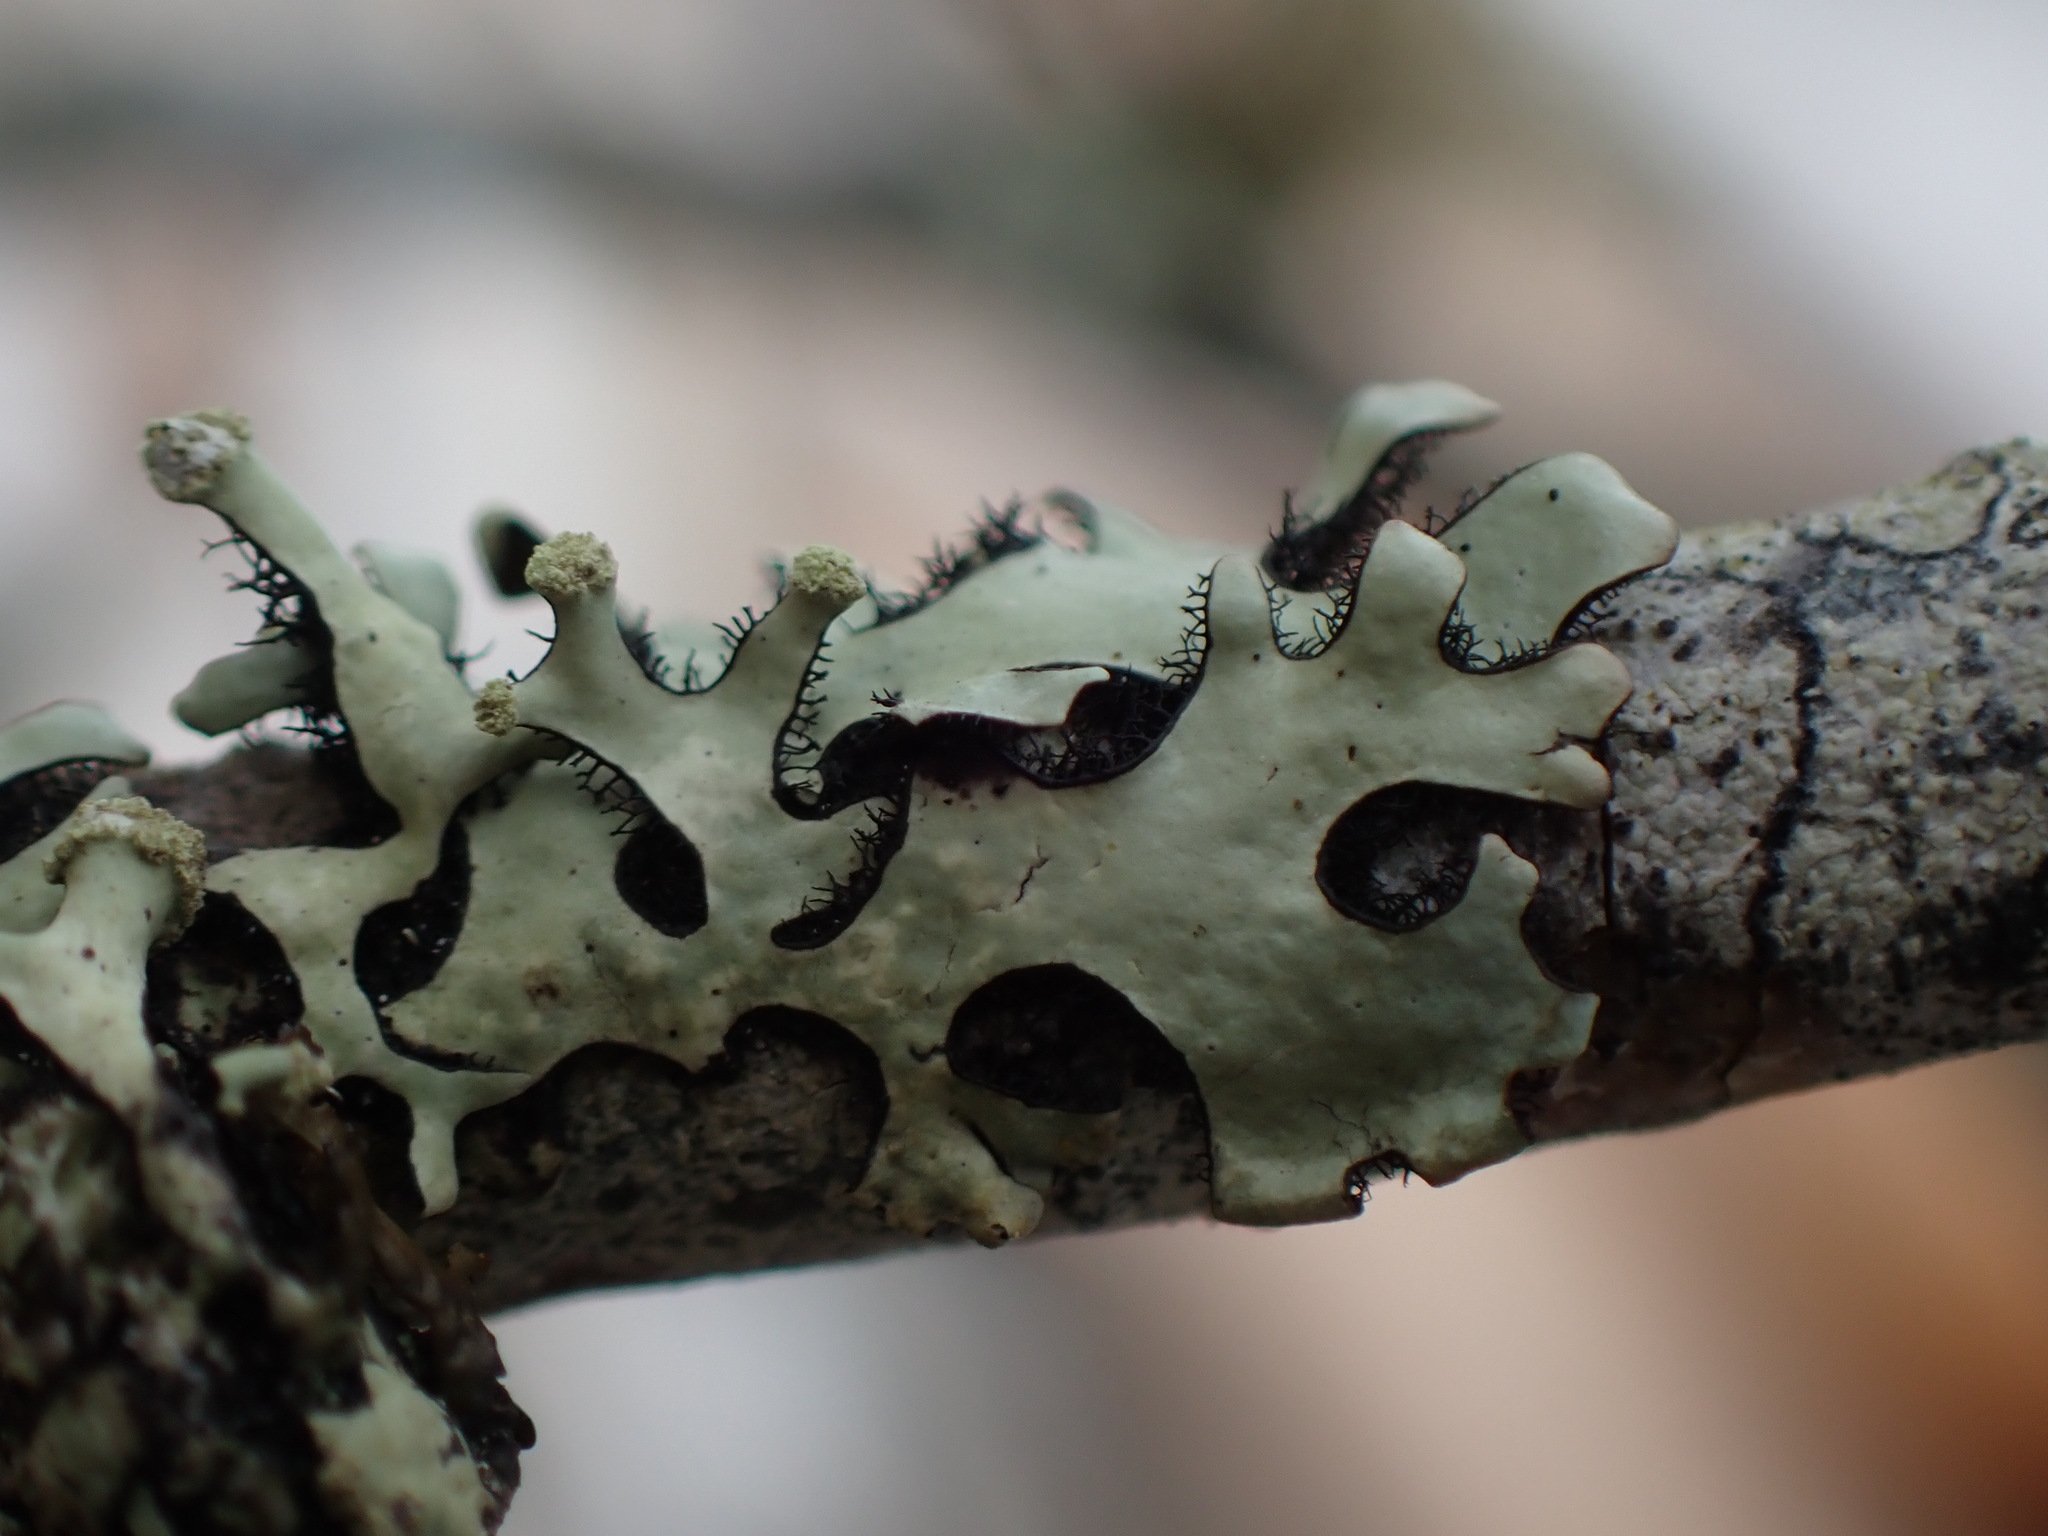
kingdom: Fungi
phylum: Ascomycota
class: Lecanoromycetes
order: Lecanorales
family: Parmeliaceae
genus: Hypotrachyna
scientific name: Hypotrachyna sinuosa
